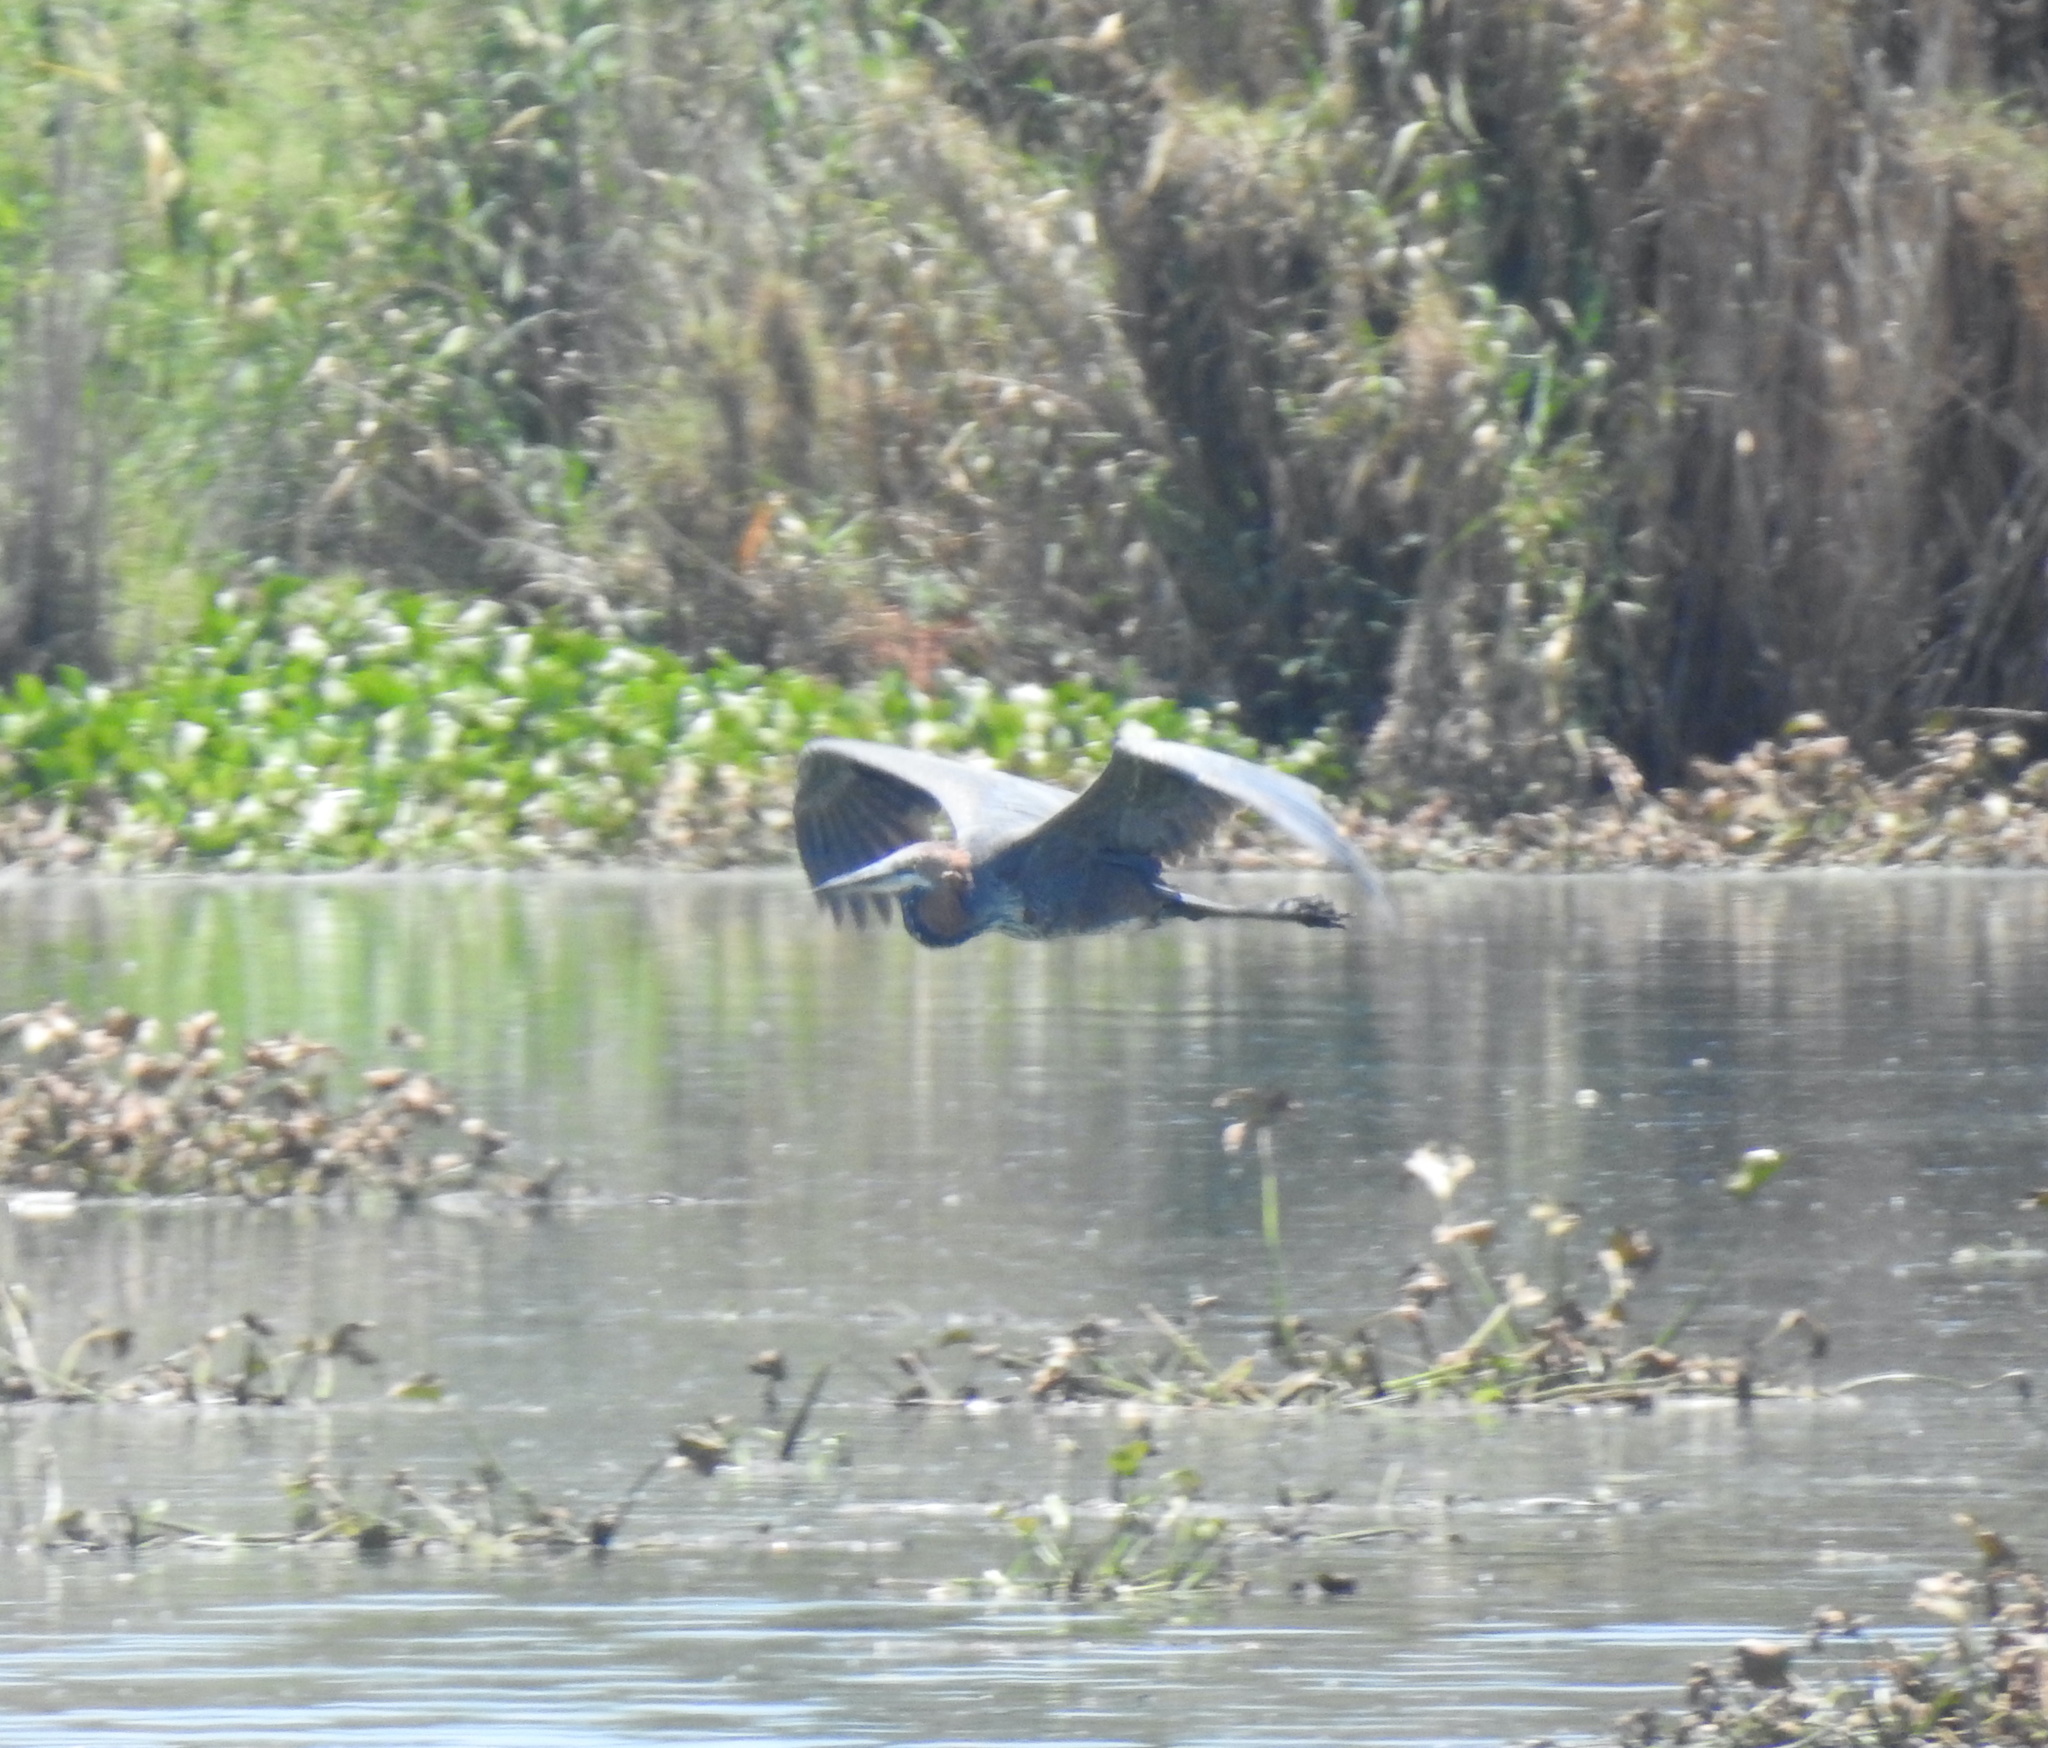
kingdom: Animalia
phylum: Chordata
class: Aves
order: Pelecaniformes
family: Ardeidae
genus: Ardea
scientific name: Ardea goliath
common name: Goliath heron
